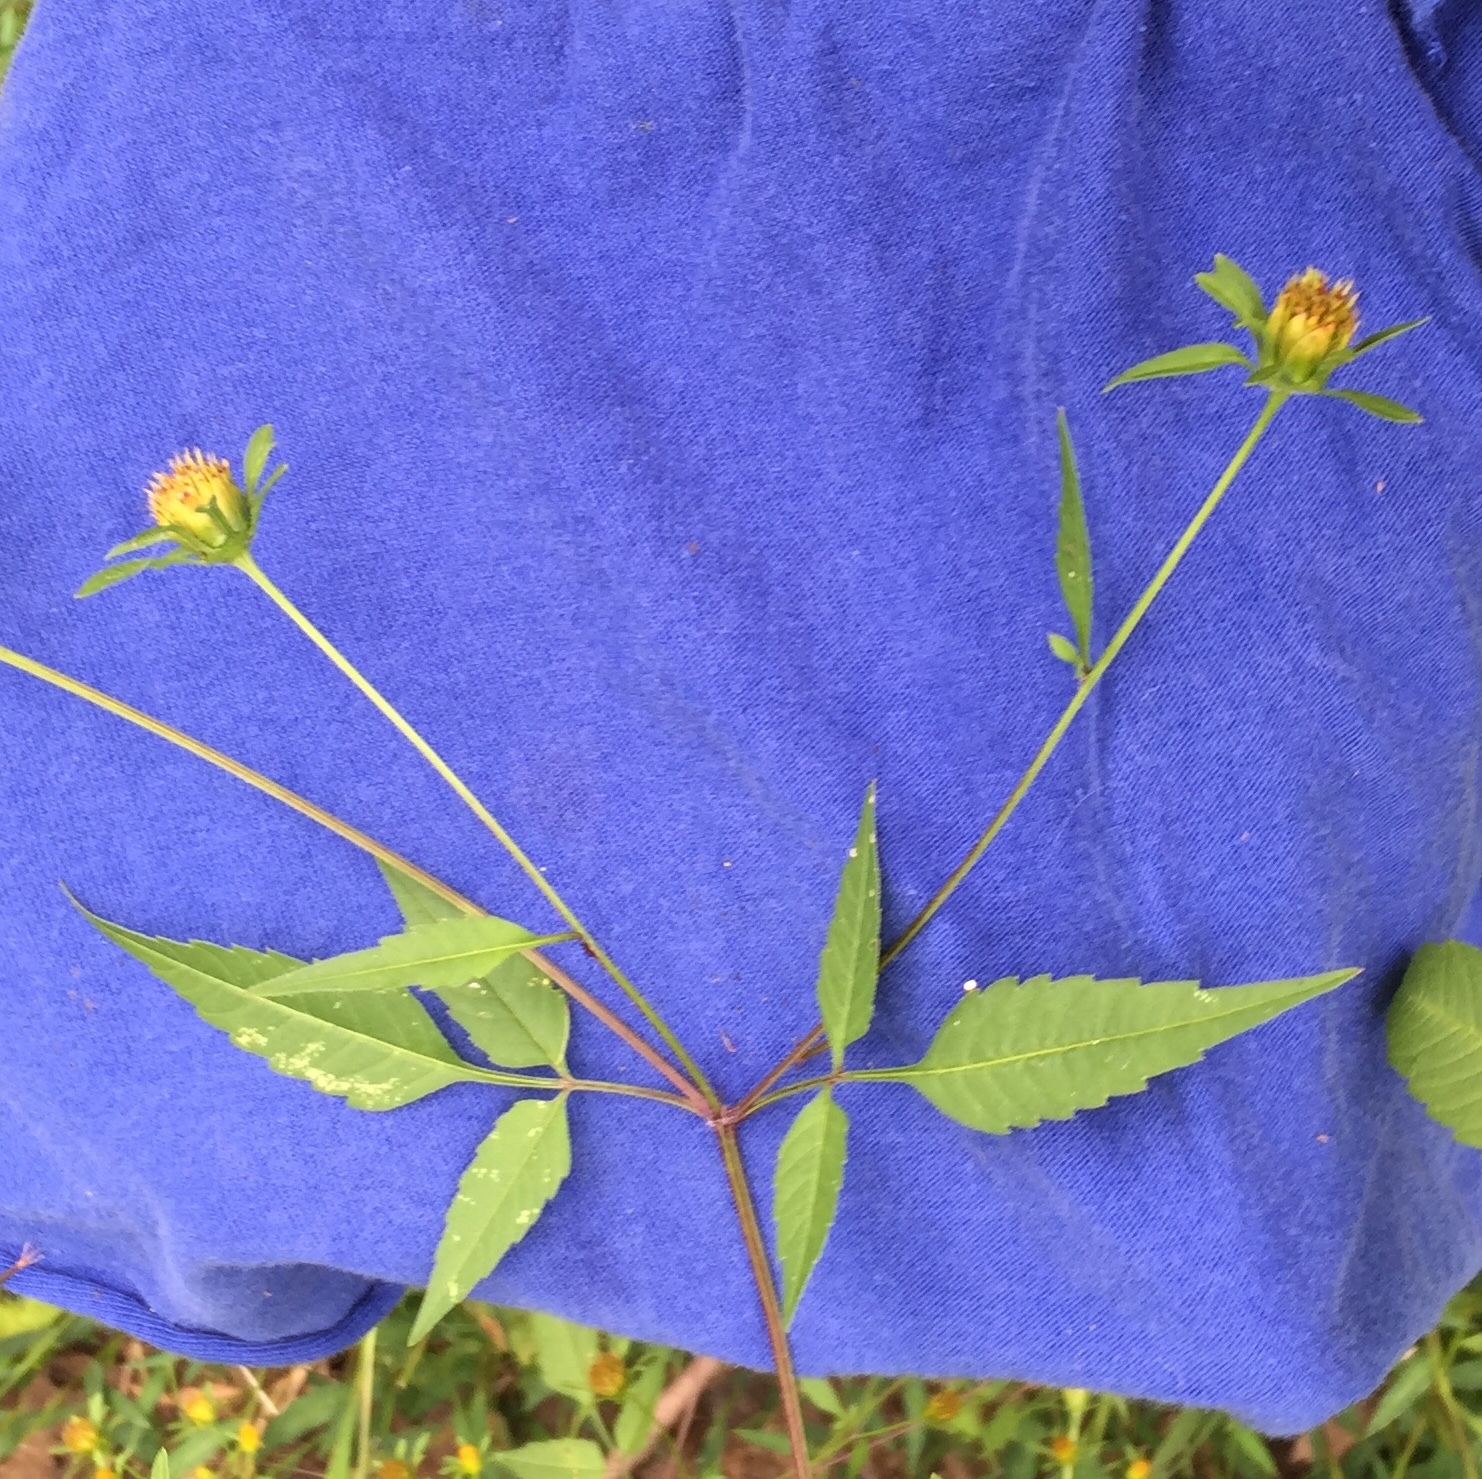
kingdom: Plantae
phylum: Tracheophyta
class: Magnoliopsida
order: Asterales
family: Asteraceae
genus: Bidens
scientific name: Bidens frondosa
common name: Beggarticks
